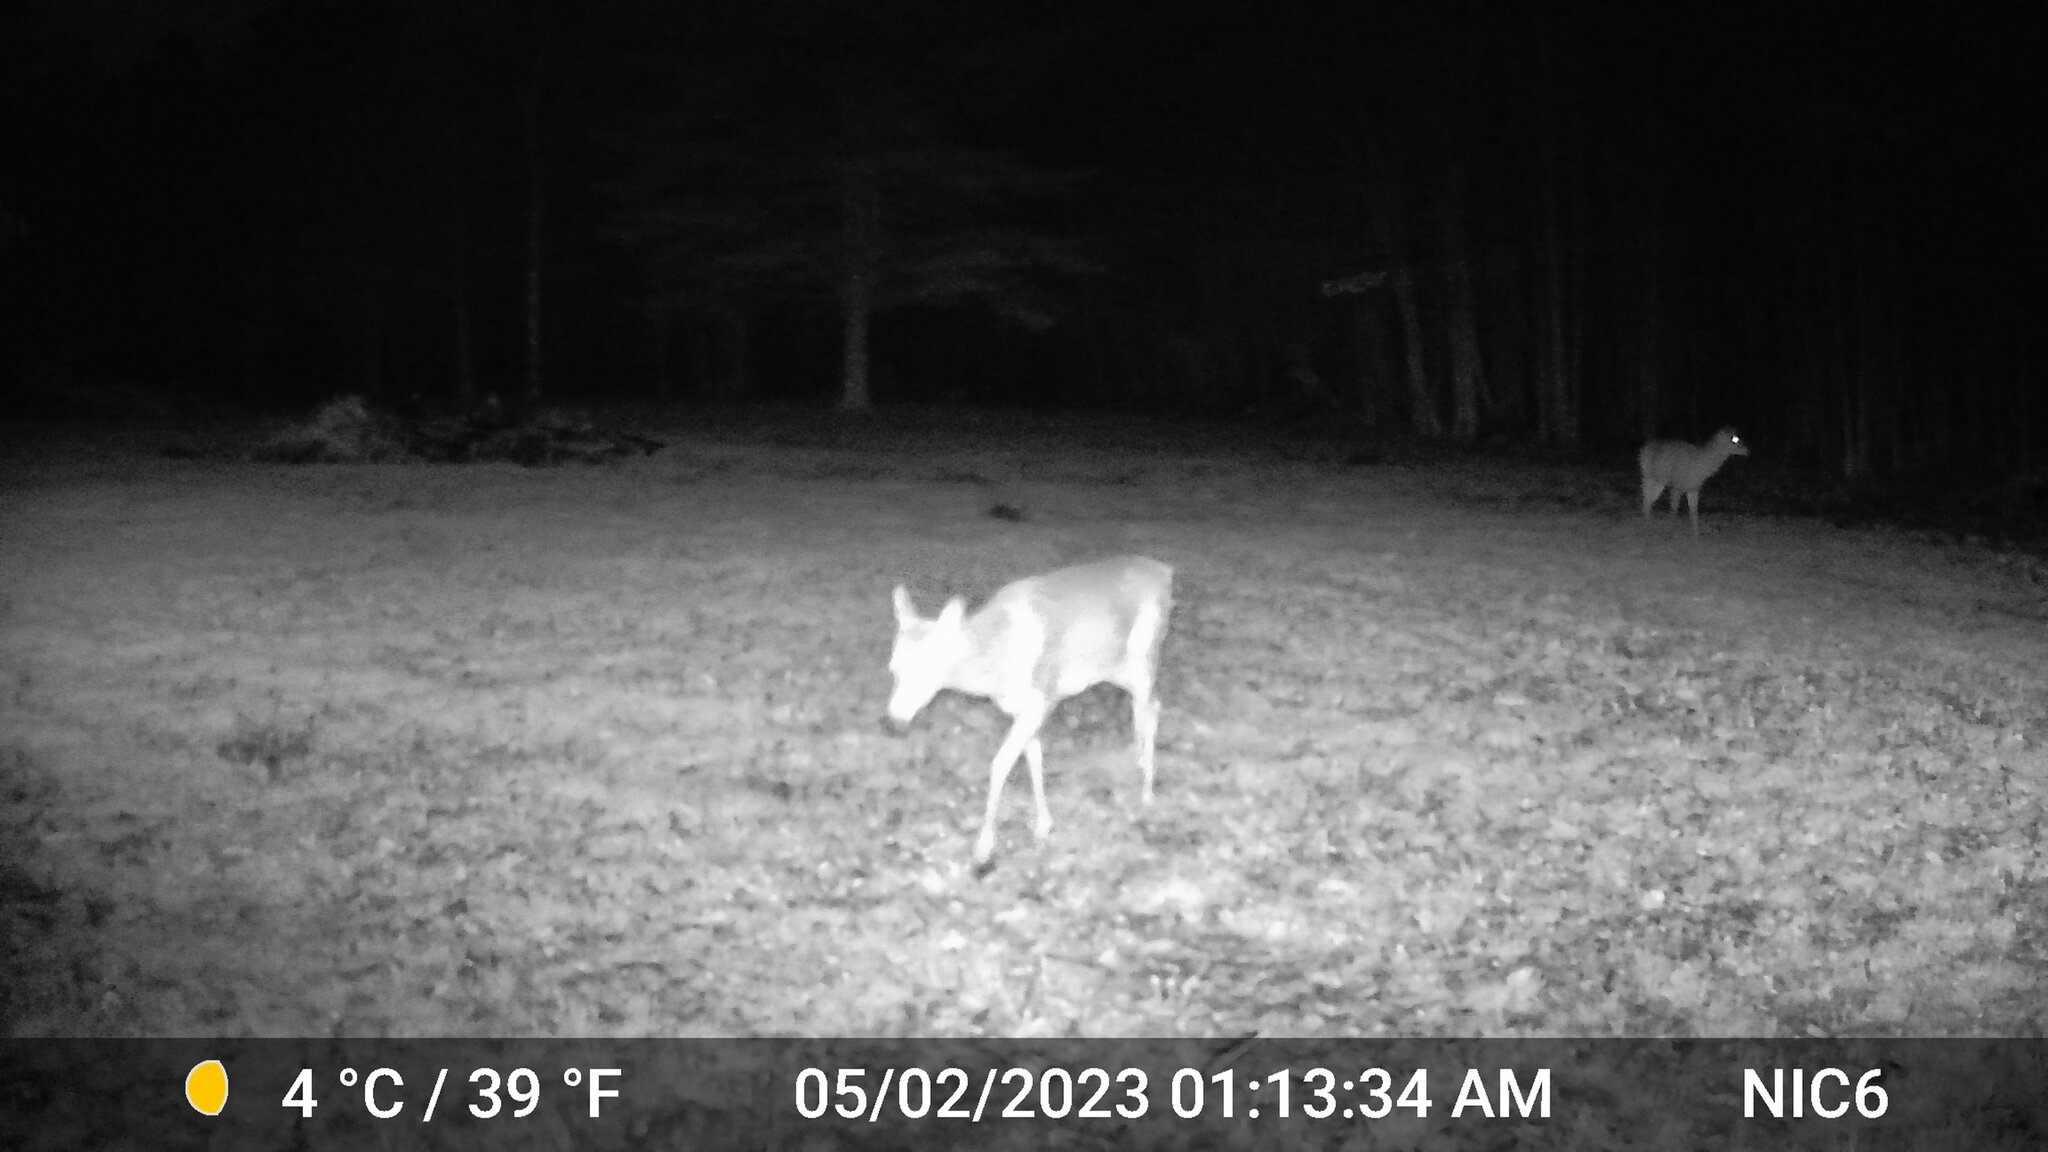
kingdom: Animalia
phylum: Chordata
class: Mammalia
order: Artiodactyla
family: Cervidae
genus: Odocoileus
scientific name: Odocoileus virginianus
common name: White-tailed deer
